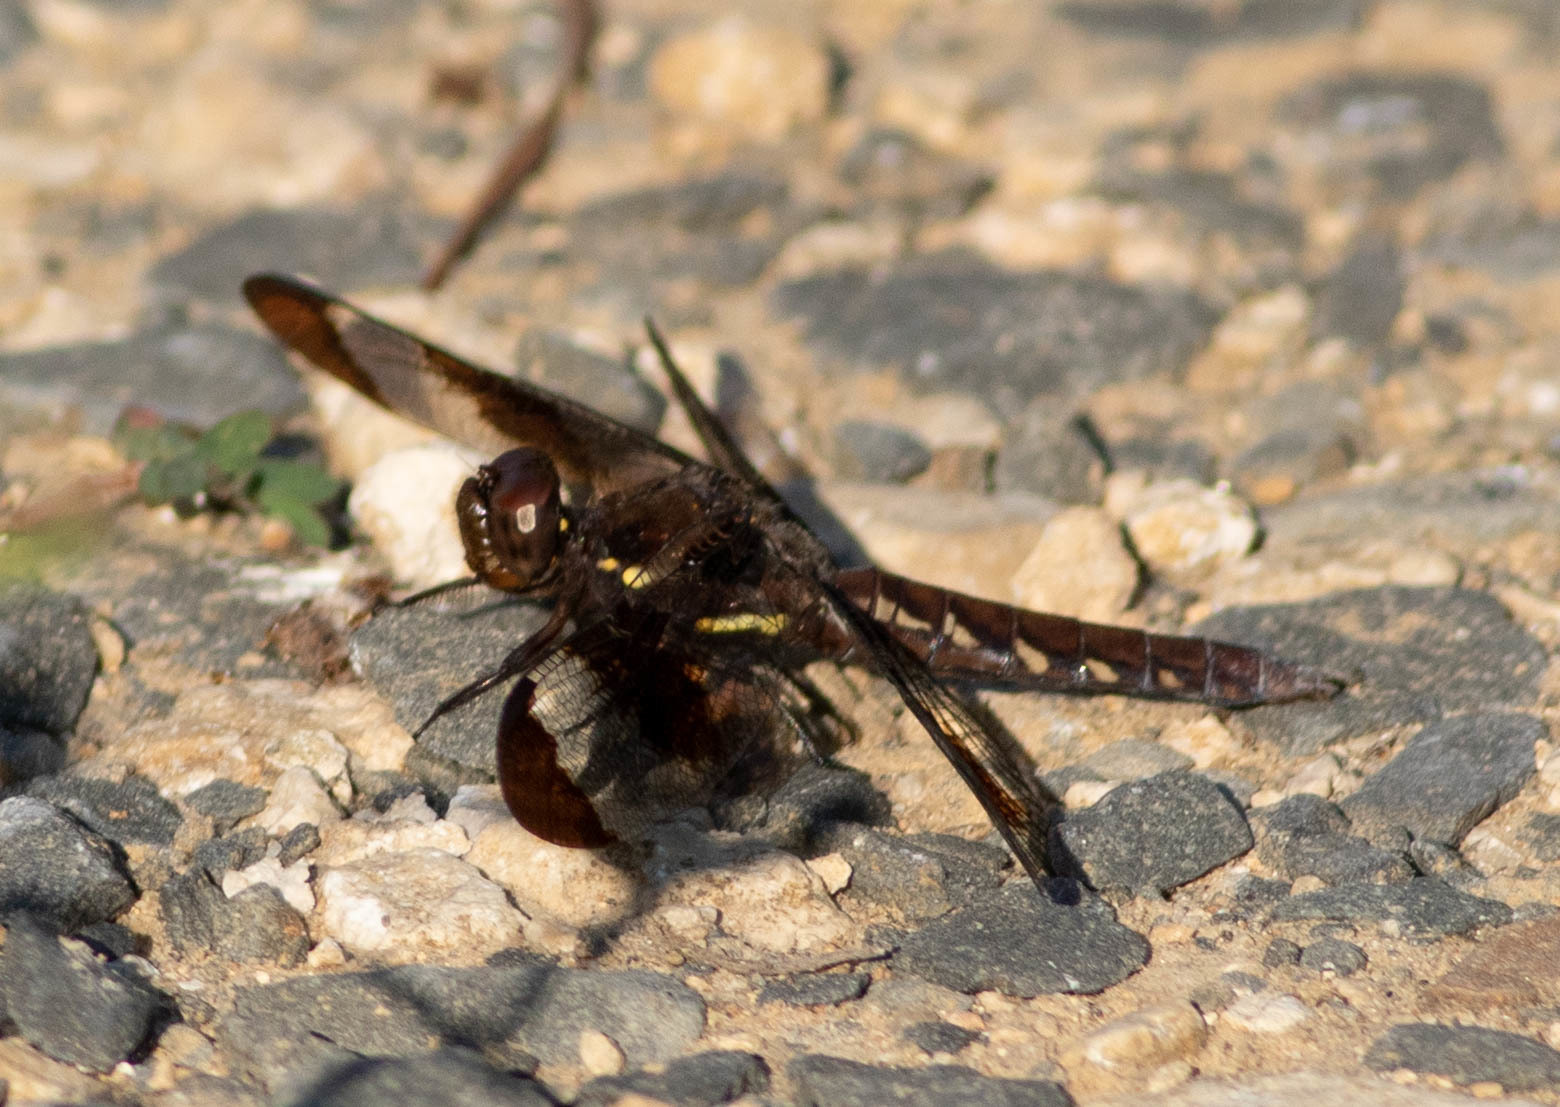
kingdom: Animalia
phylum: Arthropoda
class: Insecta
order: Odonata
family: Libellulidae
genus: Plathemis
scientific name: Plathemis lydia
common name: Common whitetail
